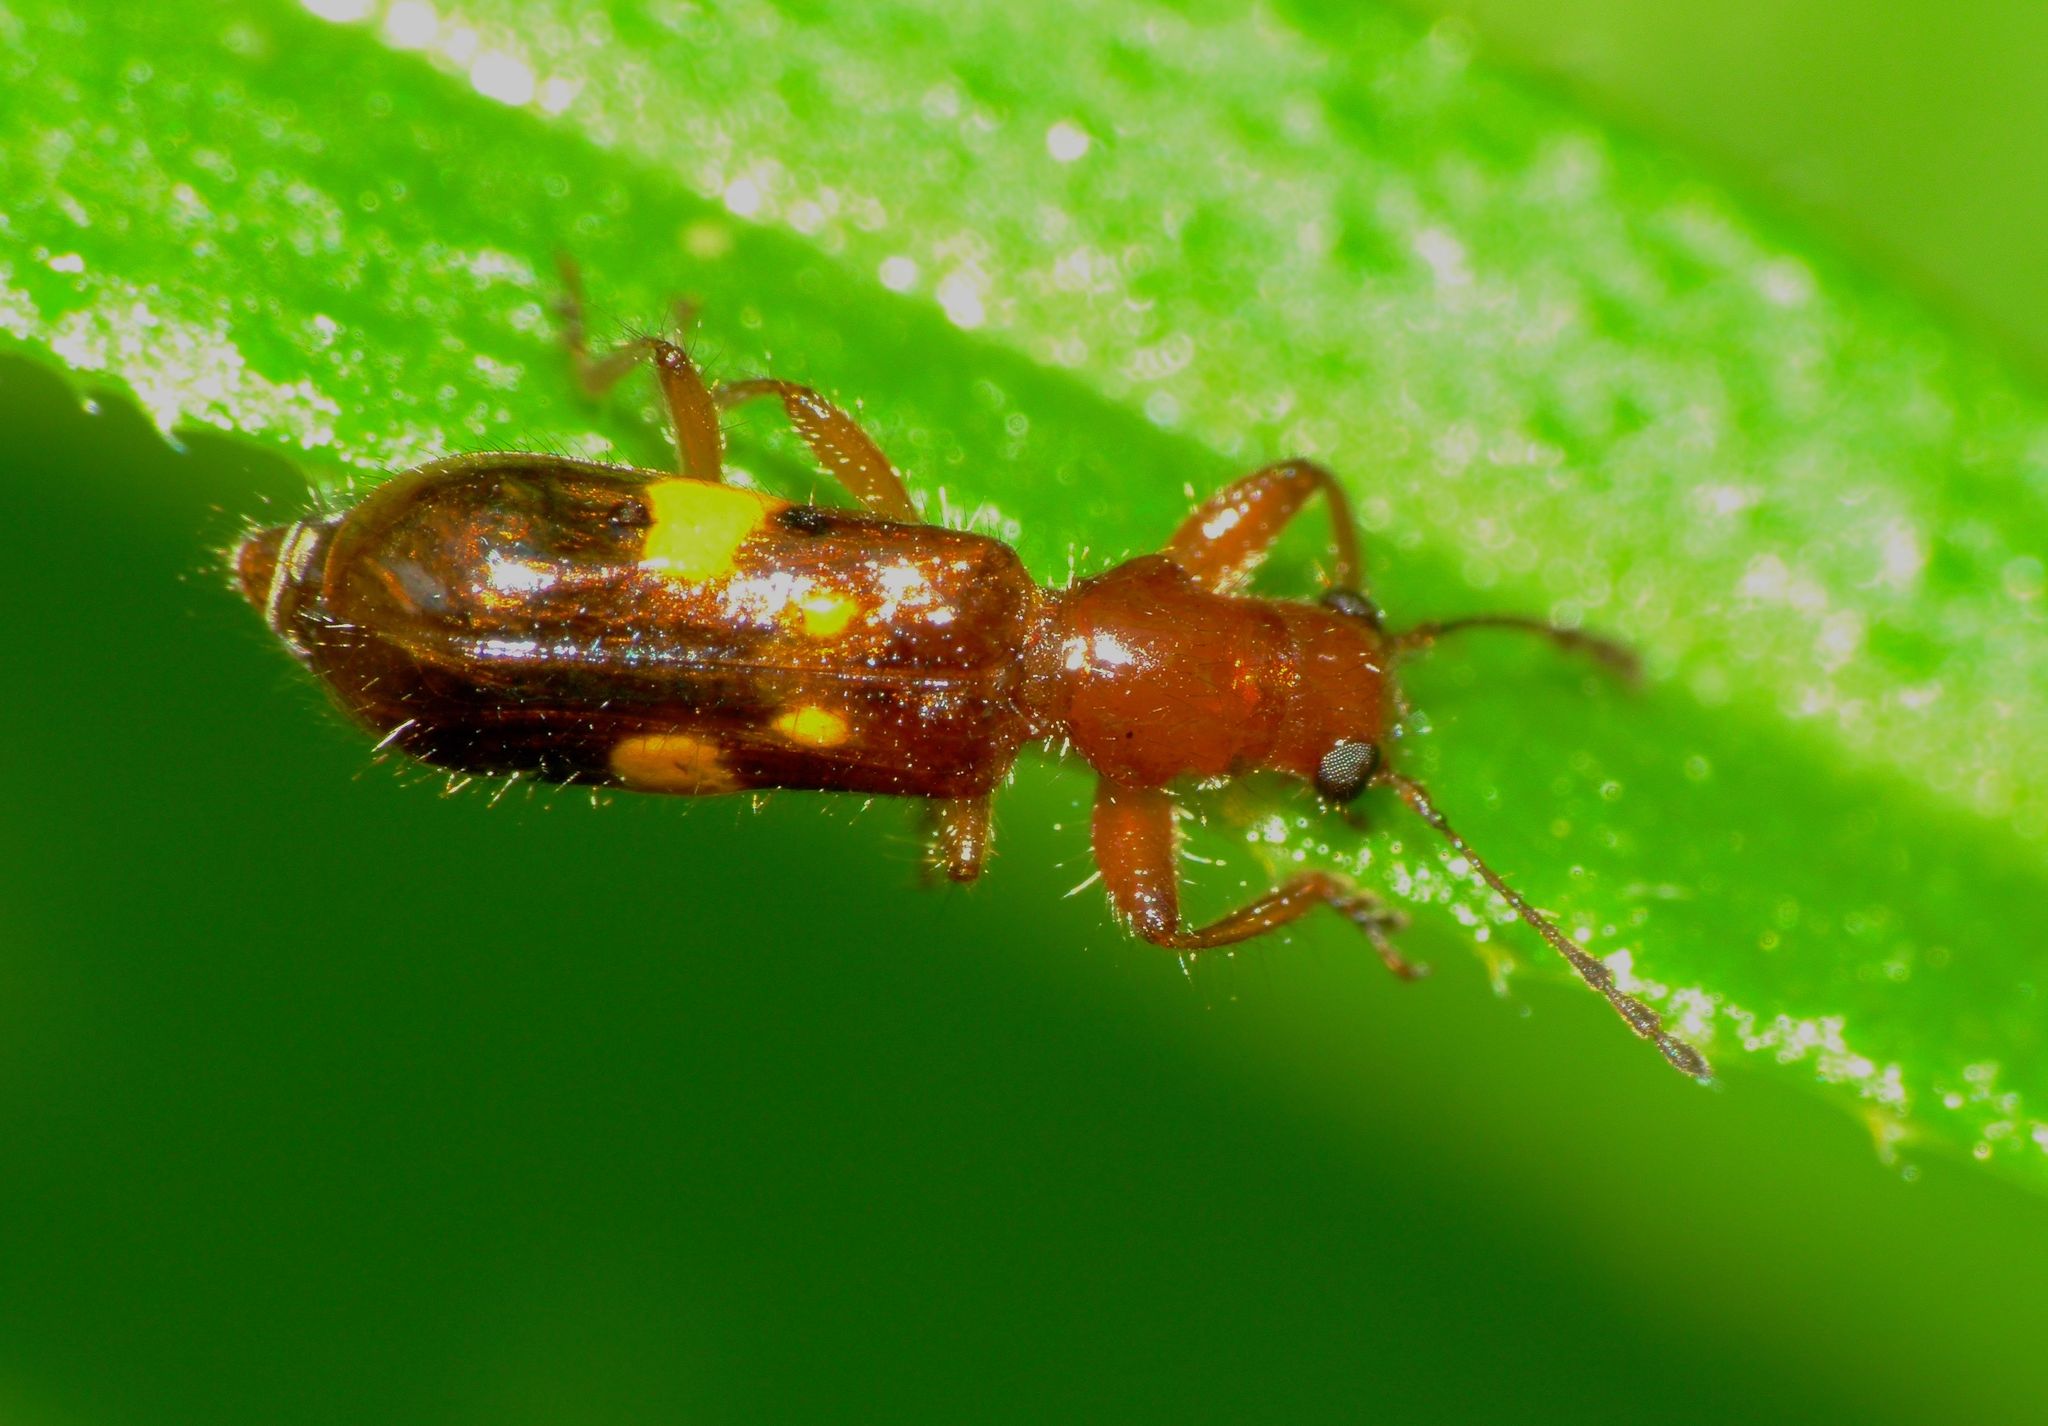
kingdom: Animalia
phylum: Arthropoda
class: Insecta
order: Coleoptera
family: Cleridae
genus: Phymatophaea
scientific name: Phymatophaea
